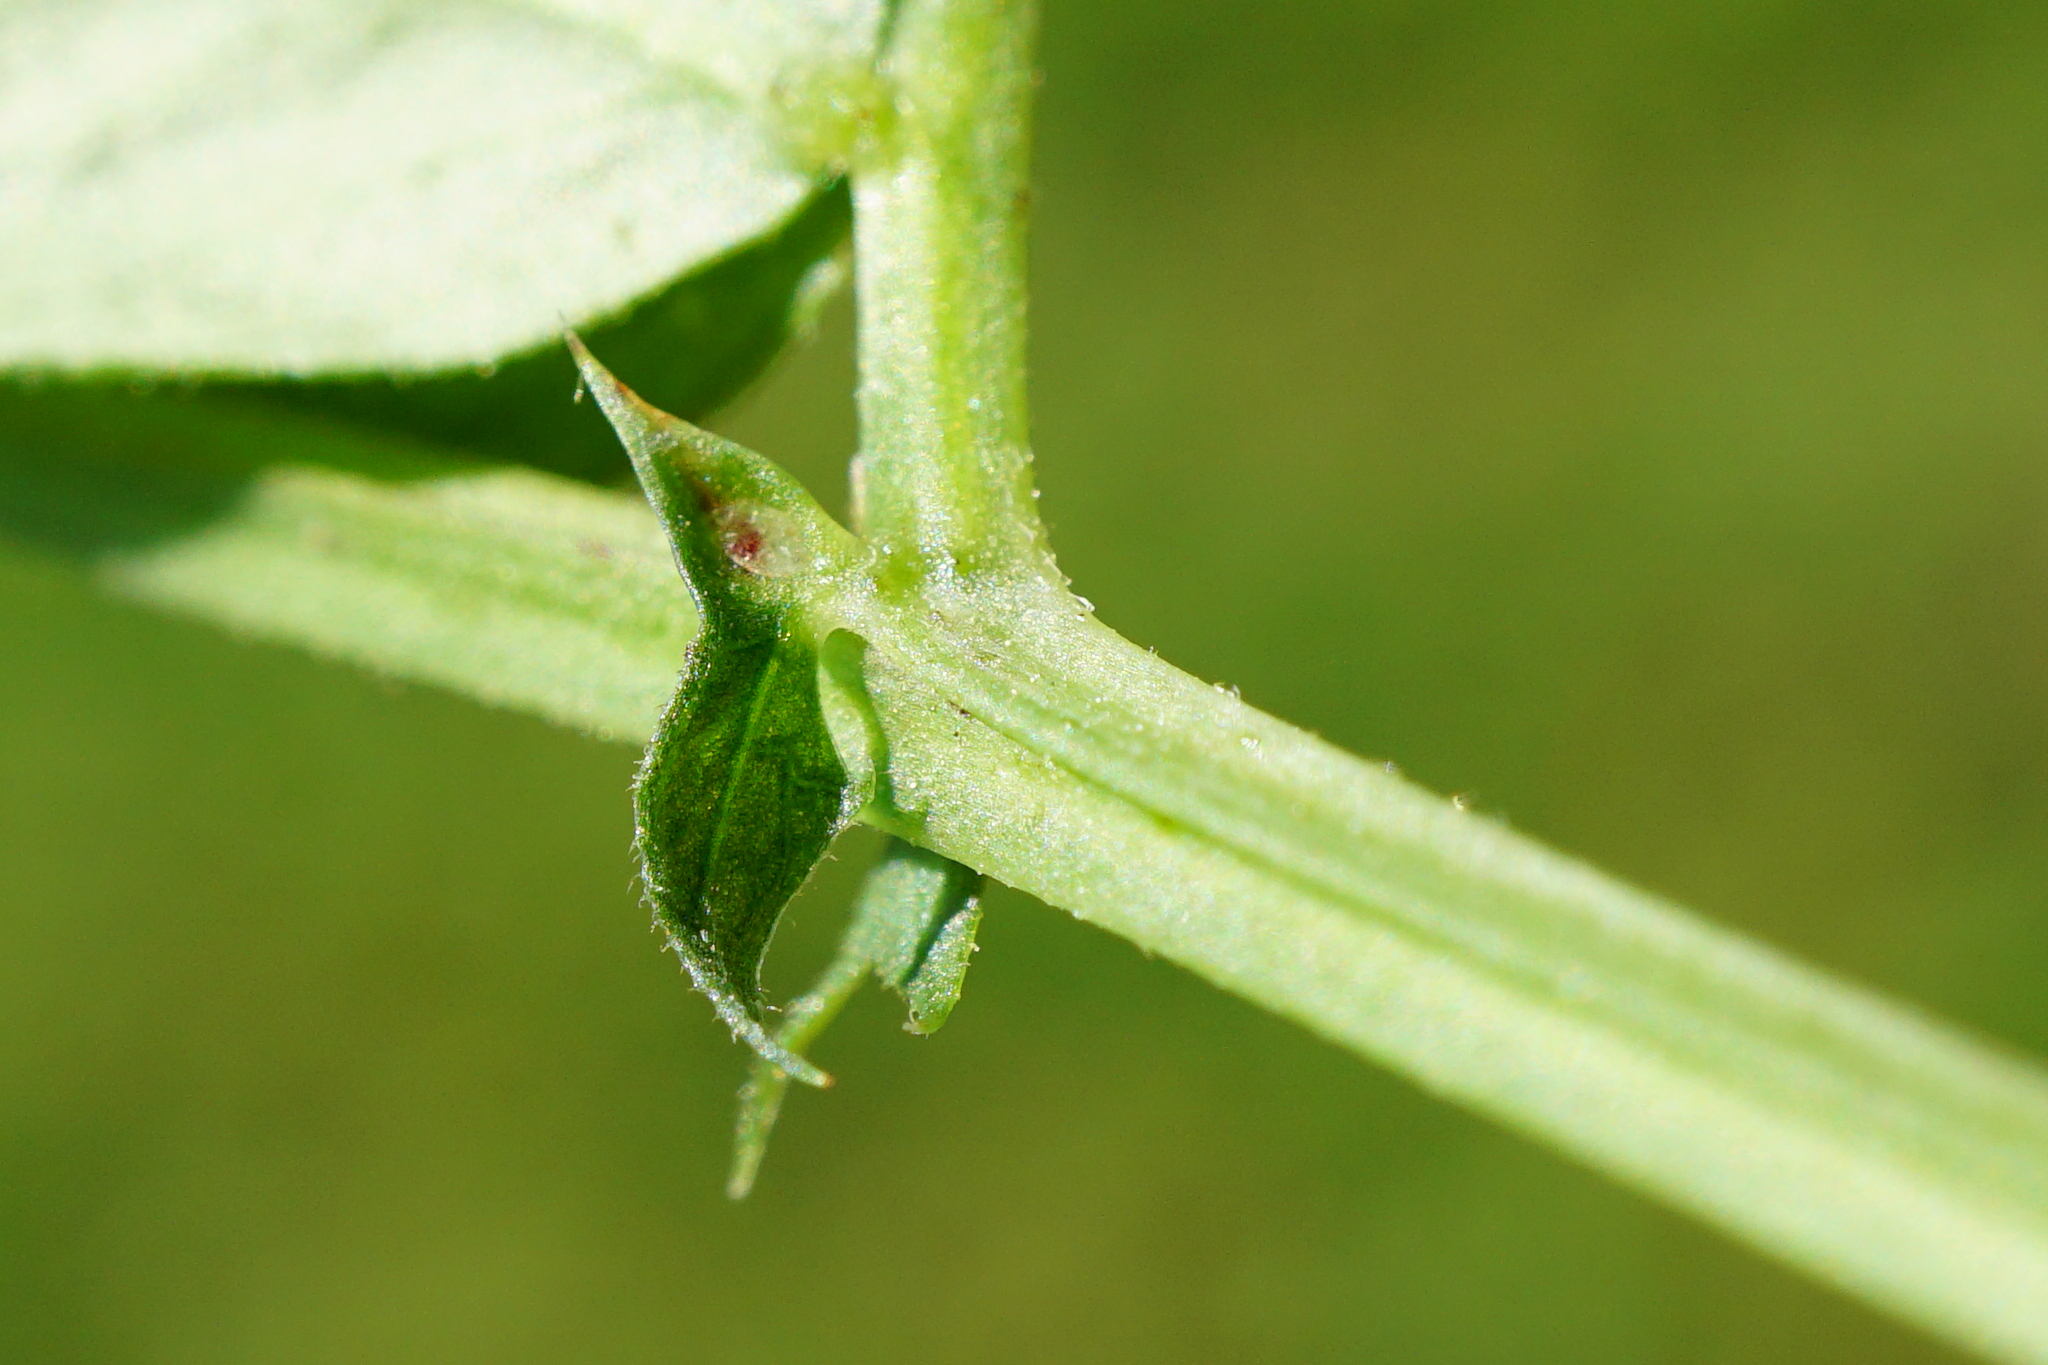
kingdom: Plantae
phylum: Tracheophyta
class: Magnoliopsida
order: Fabales
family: Fabaceae
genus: Vicia
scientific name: Vicia sepium
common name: Bush vetch
